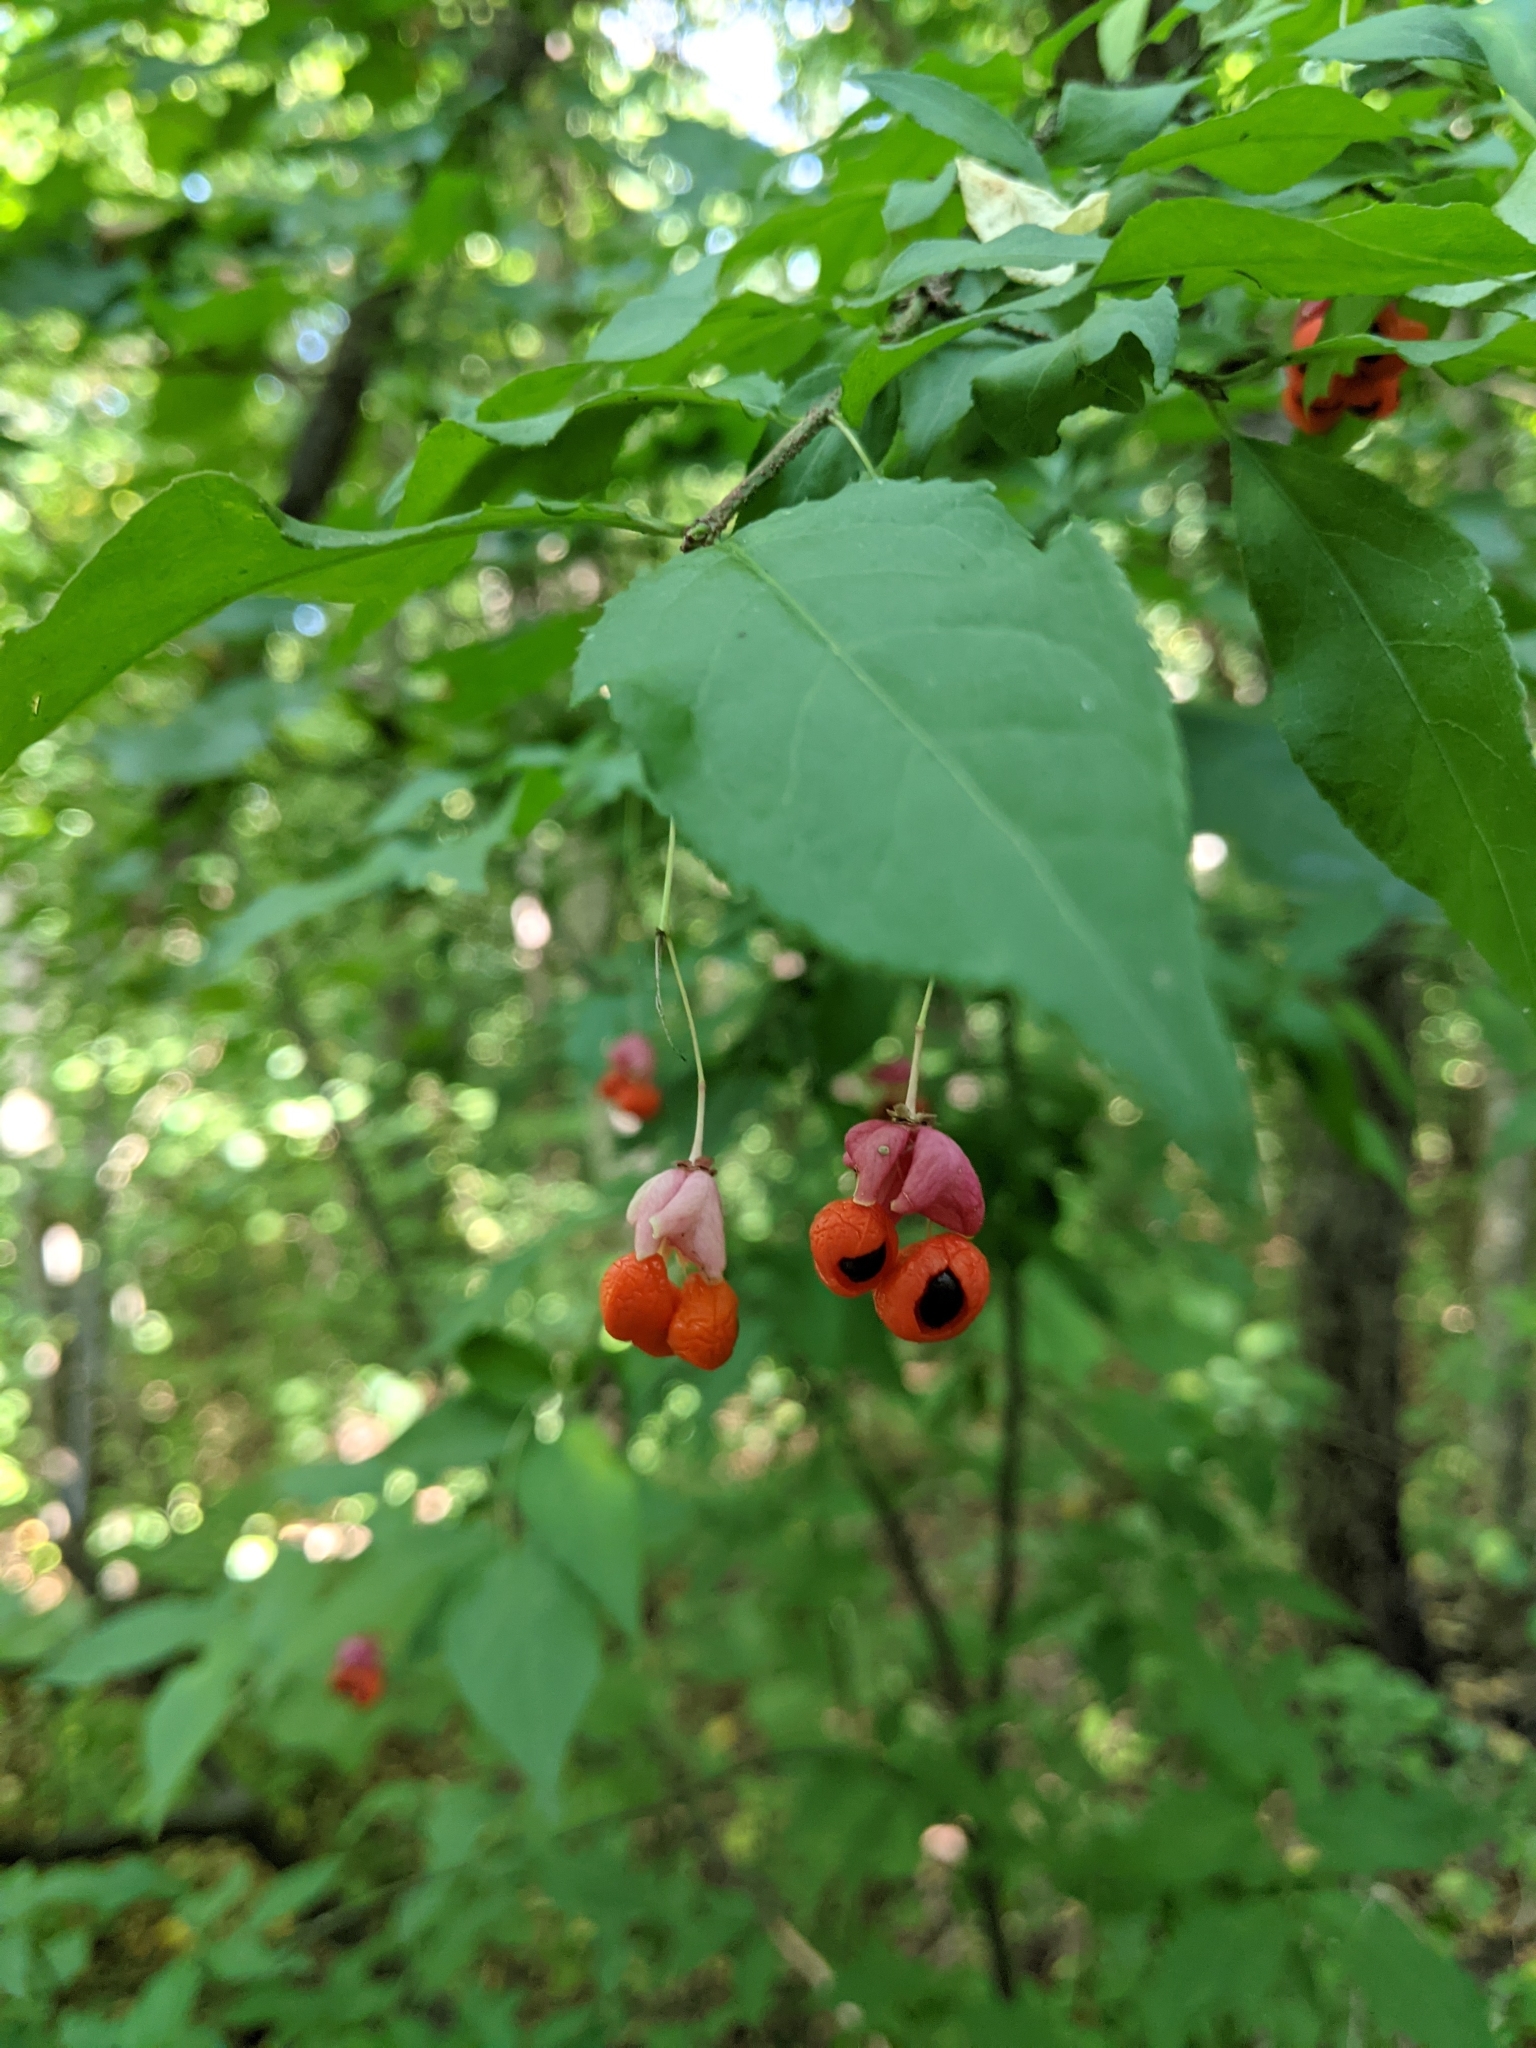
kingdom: Plantae
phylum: Tracheophyta
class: Magnoliopsida
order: Celastrales
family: Celastraceae
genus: Euonymus
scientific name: Euonymus verrucosus
